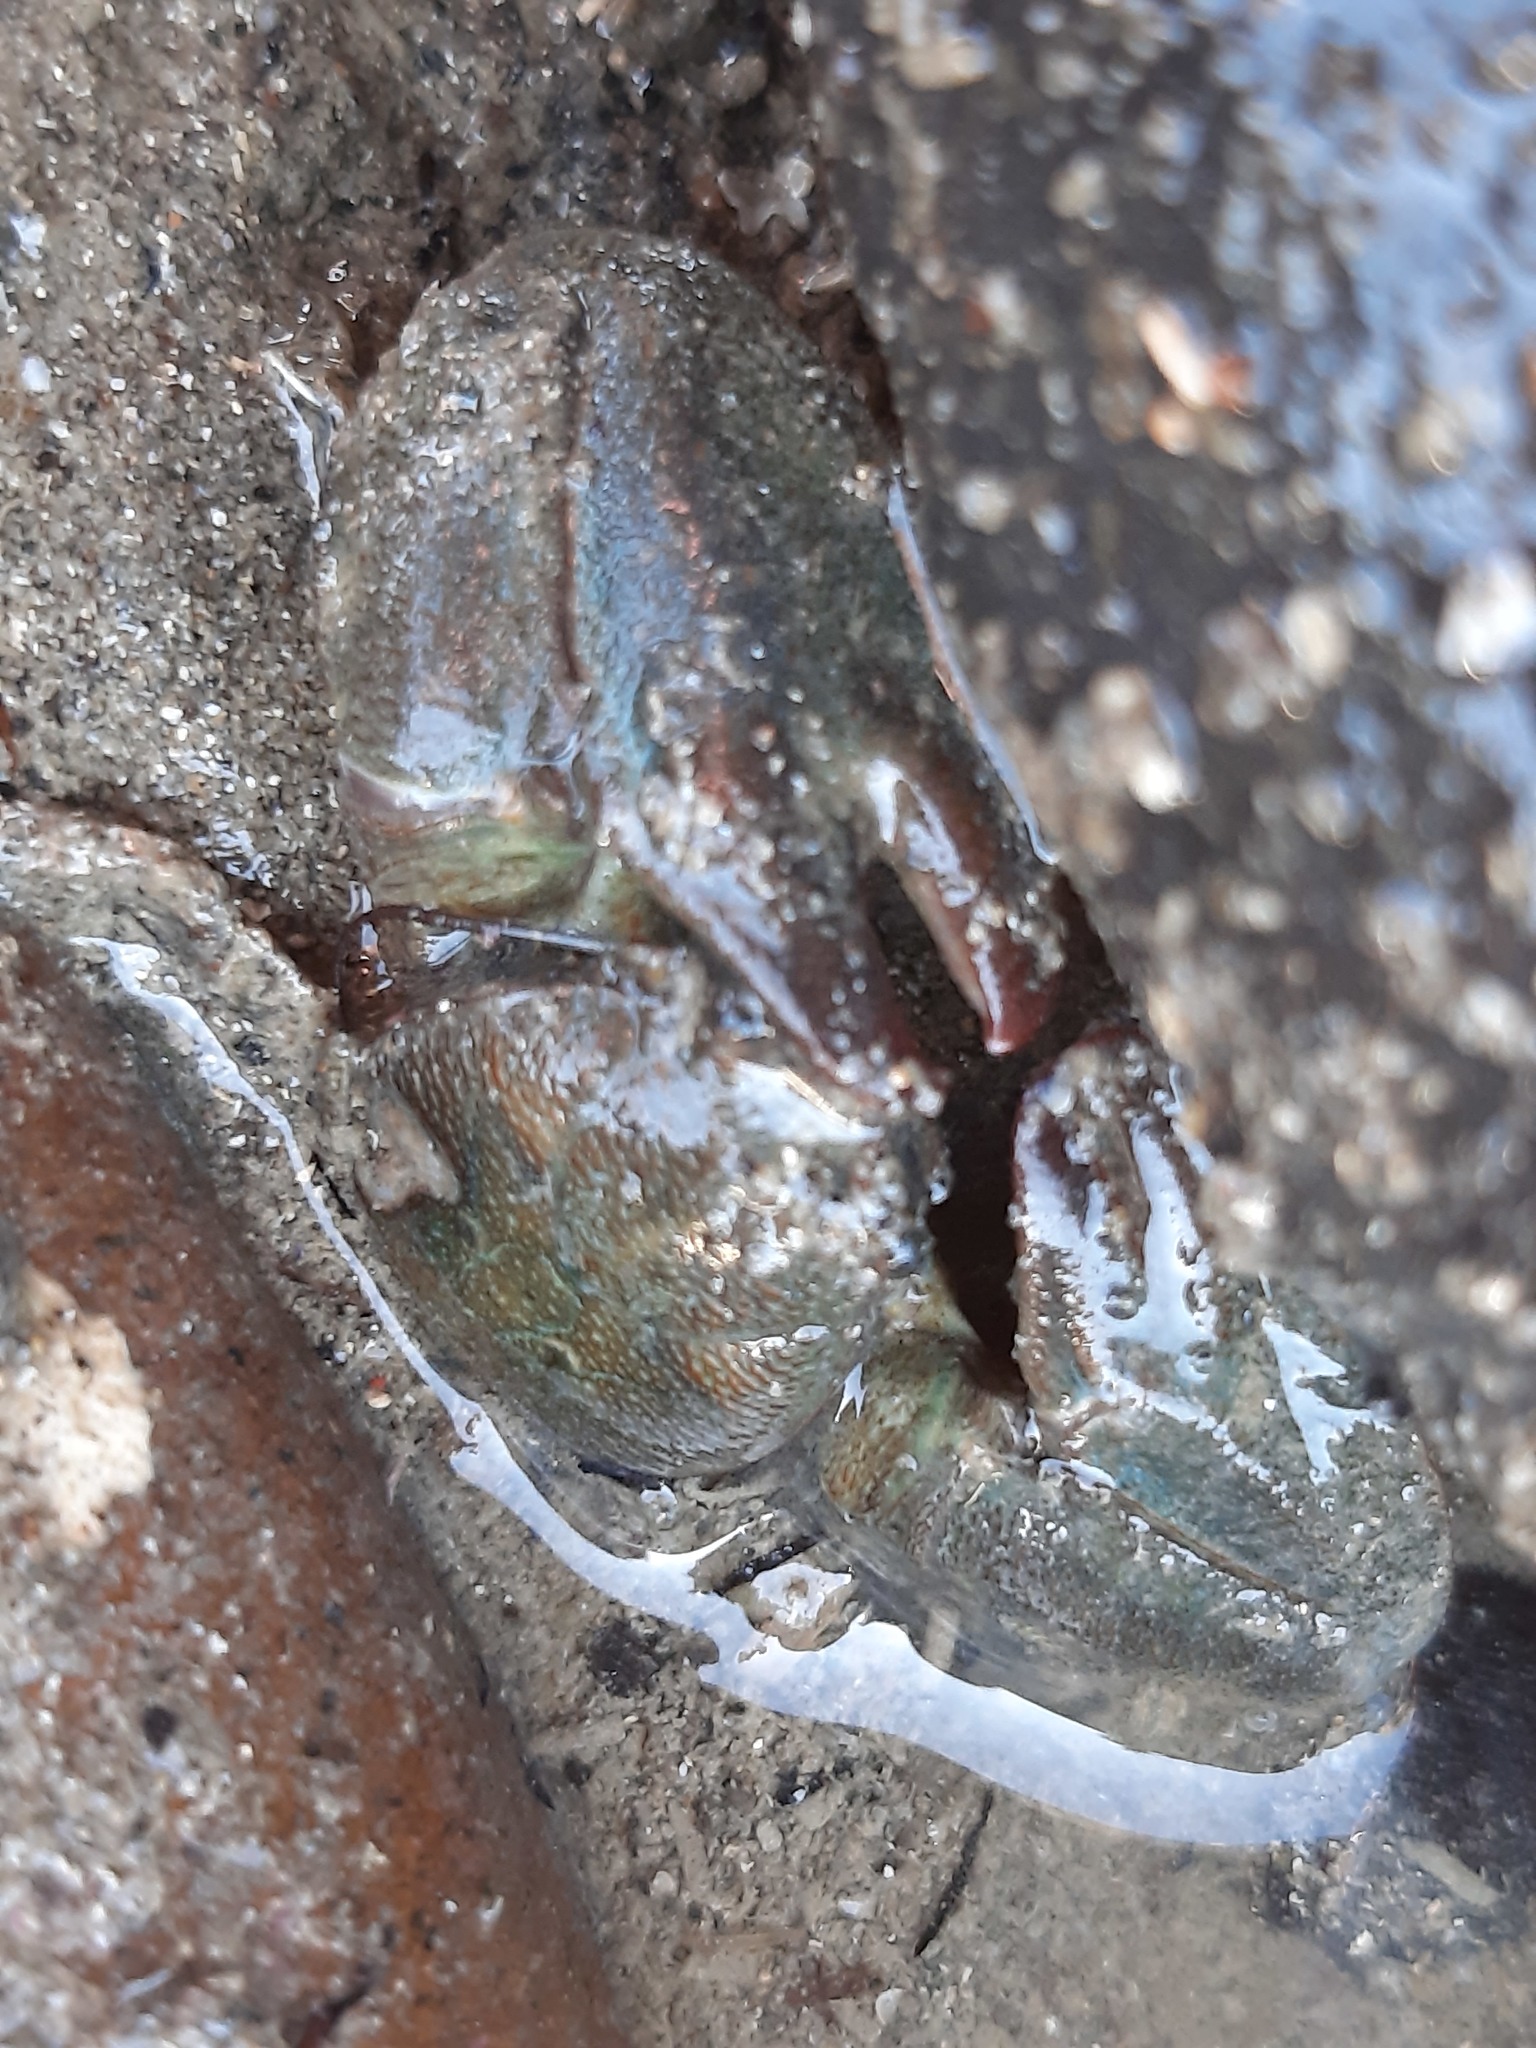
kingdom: Animalia
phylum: Arthropoda
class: Malacostraca
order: Decapoda
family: Porcellanidae
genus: Petrolisthes
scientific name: Petrolisthes elongatus
